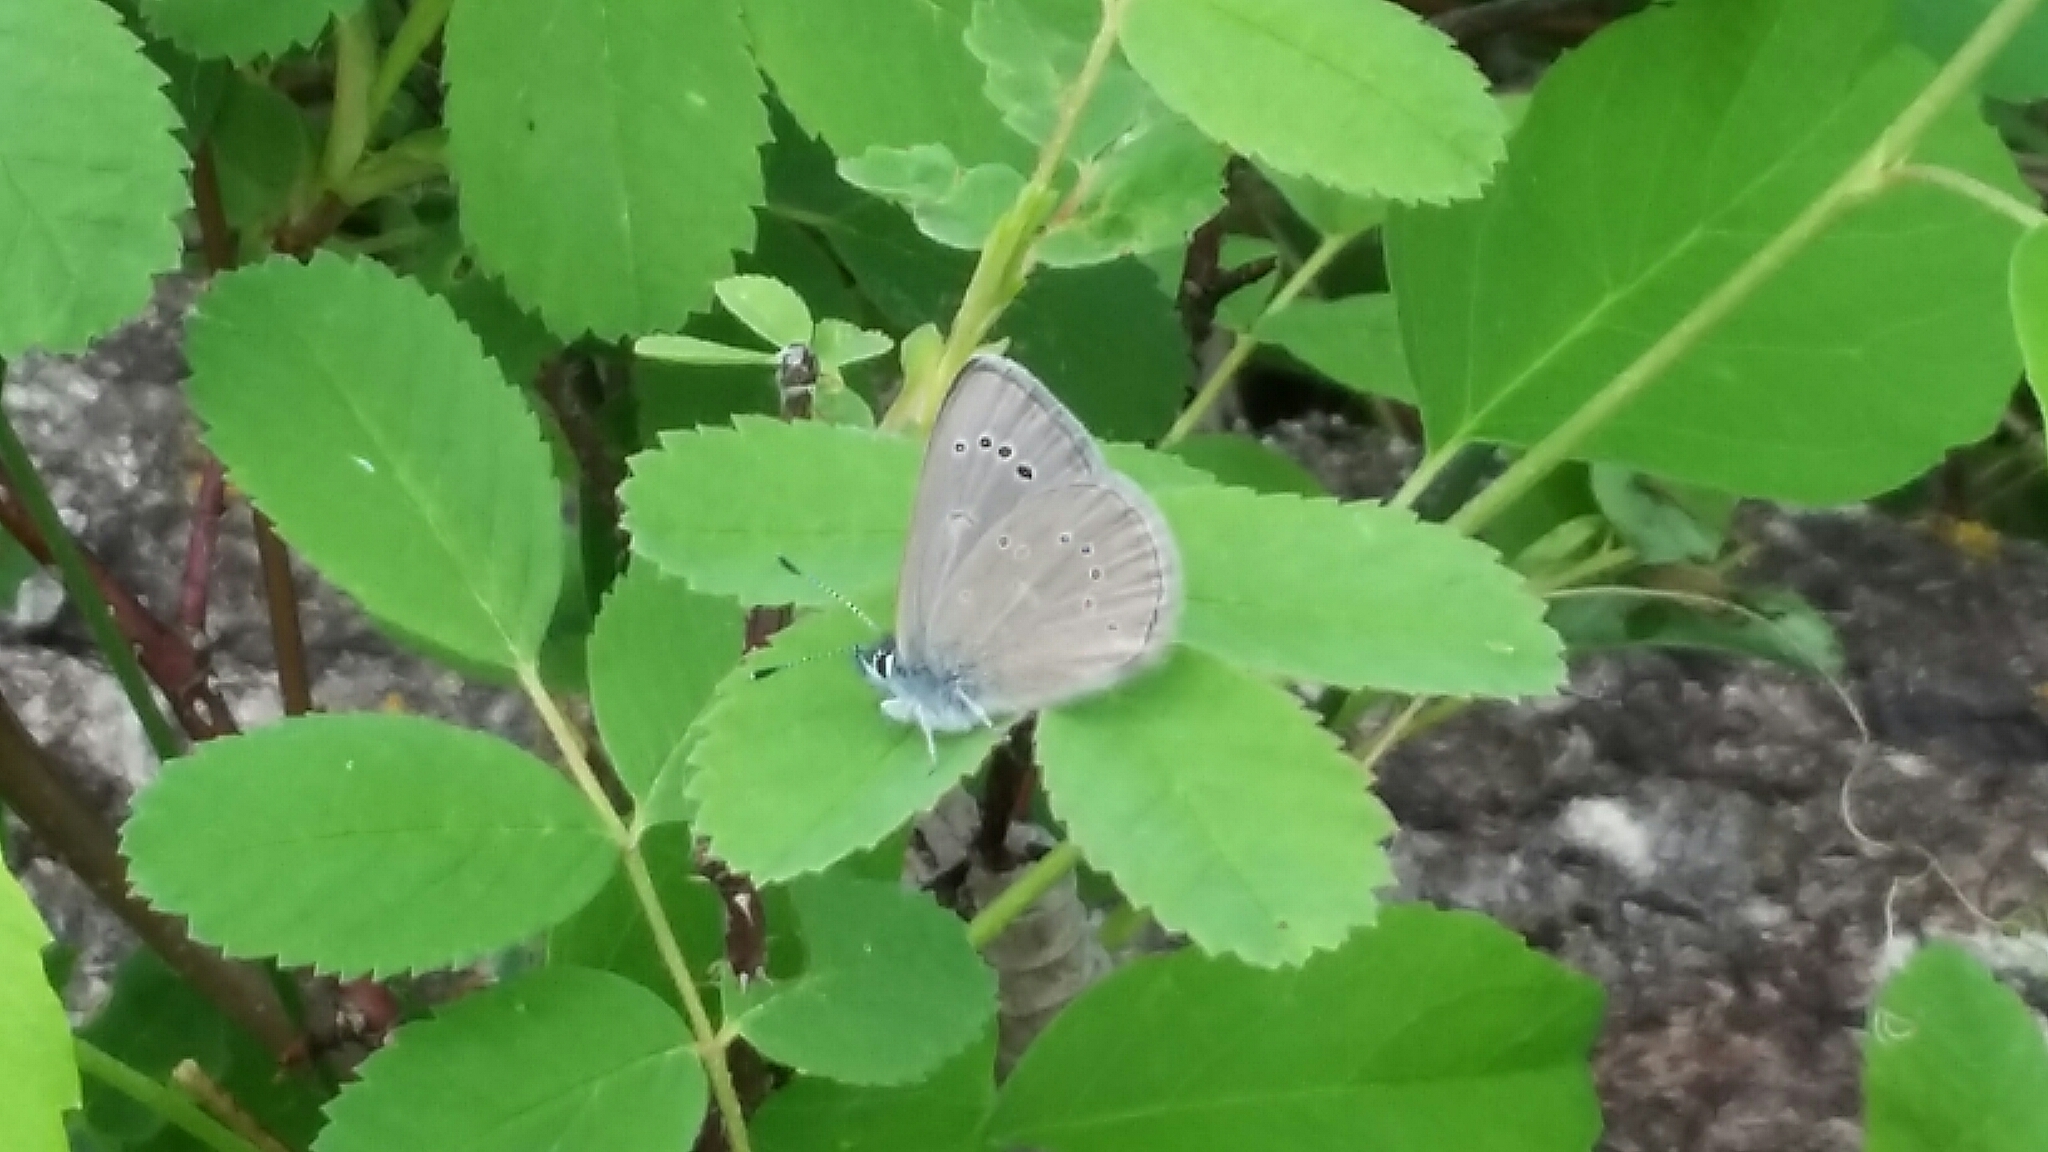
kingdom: Animalia
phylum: Arthropoda
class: Insecta
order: Lepidoptera
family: Lycaenidae
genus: Glaucopsyche
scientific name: Glaucopsyche lygdamus
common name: Silvery blue
